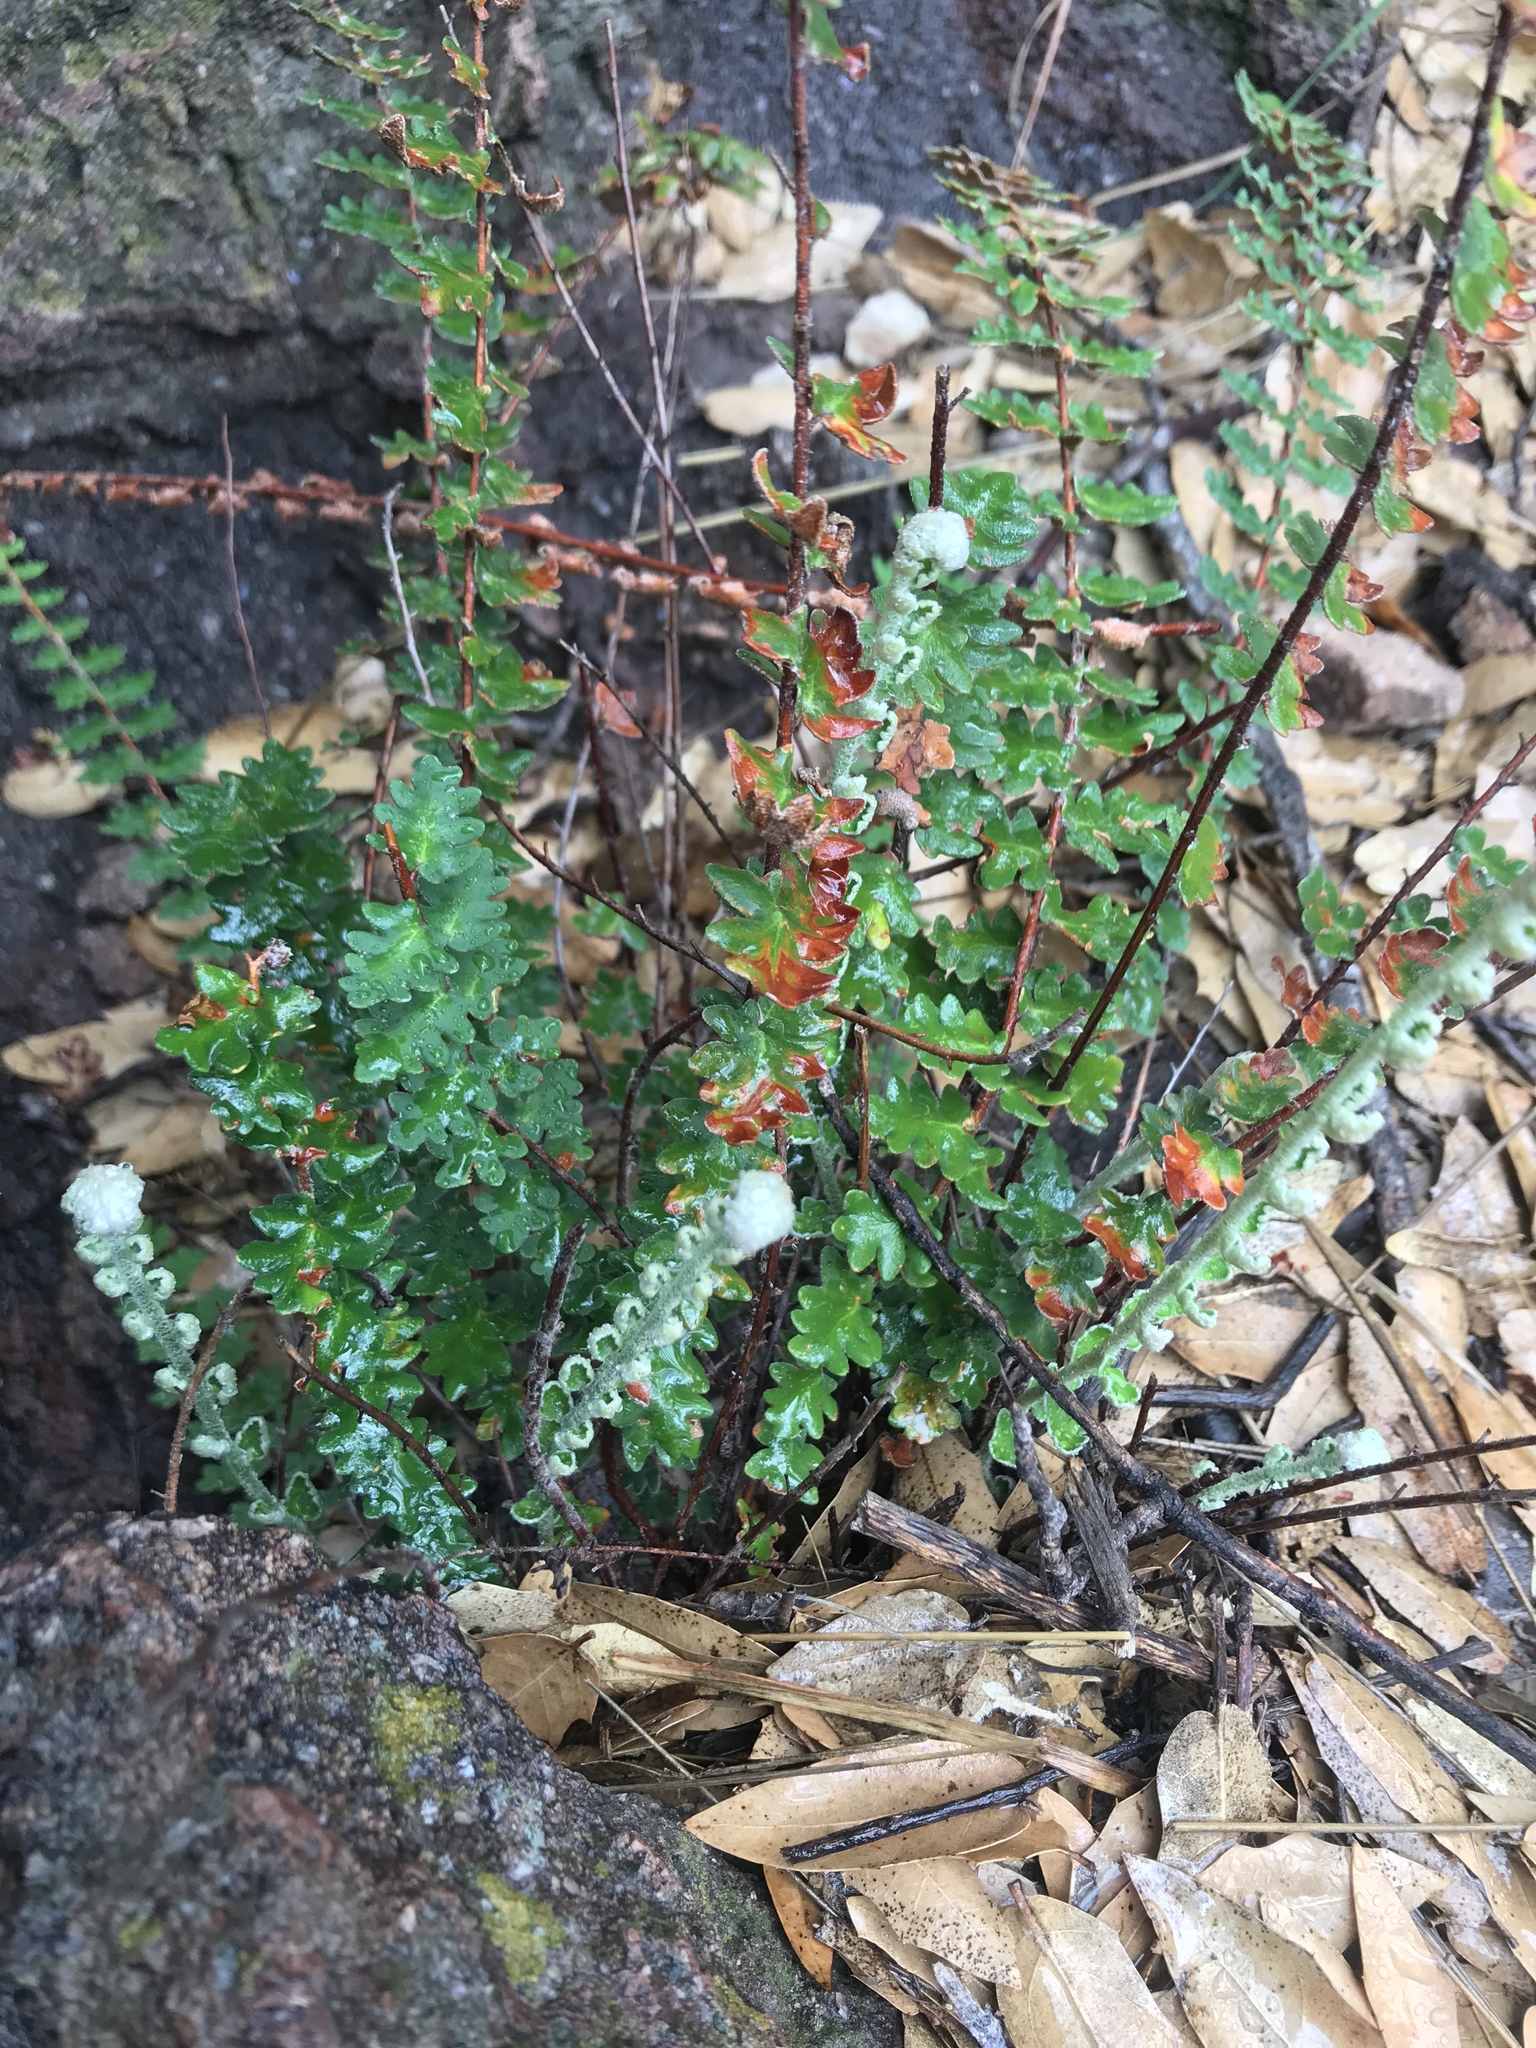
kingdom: Plantae
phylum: Tracheophyta
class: Polypodiopsida
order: Polypodiales
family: Pteridaceae
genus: Astrolepis
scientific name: Astrolepis sinuata
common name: Wavy scaly cloakfern
